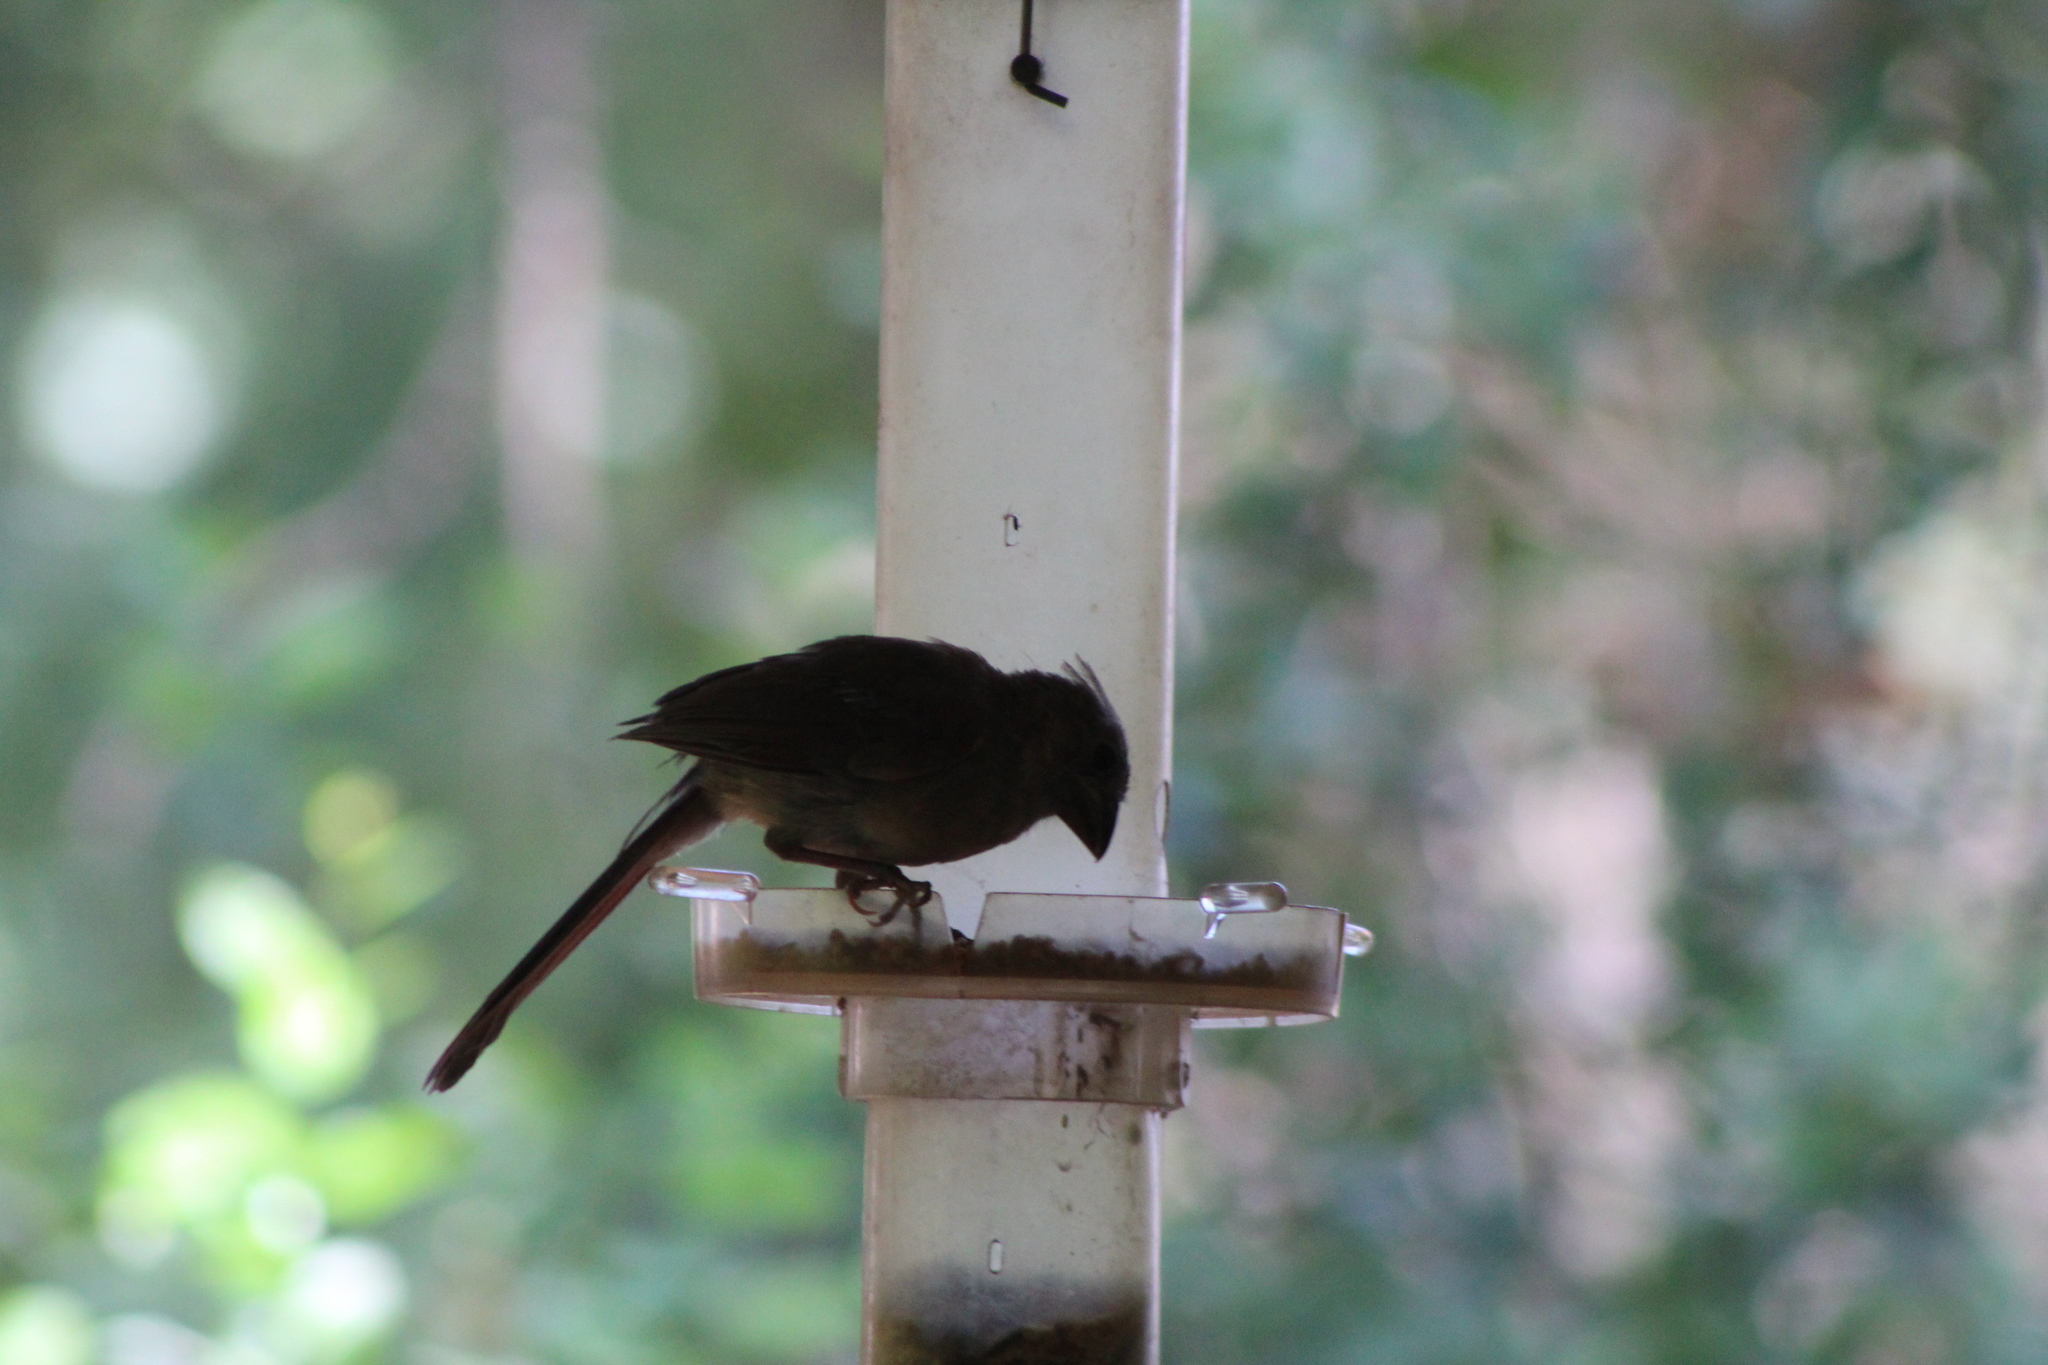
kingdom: Animalia
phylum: Chordata
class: Aves
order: Passeriformes
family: Cardinalidae
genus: Cardinalis
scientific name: Cardinalis cardinalis
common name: Northern cardinal
